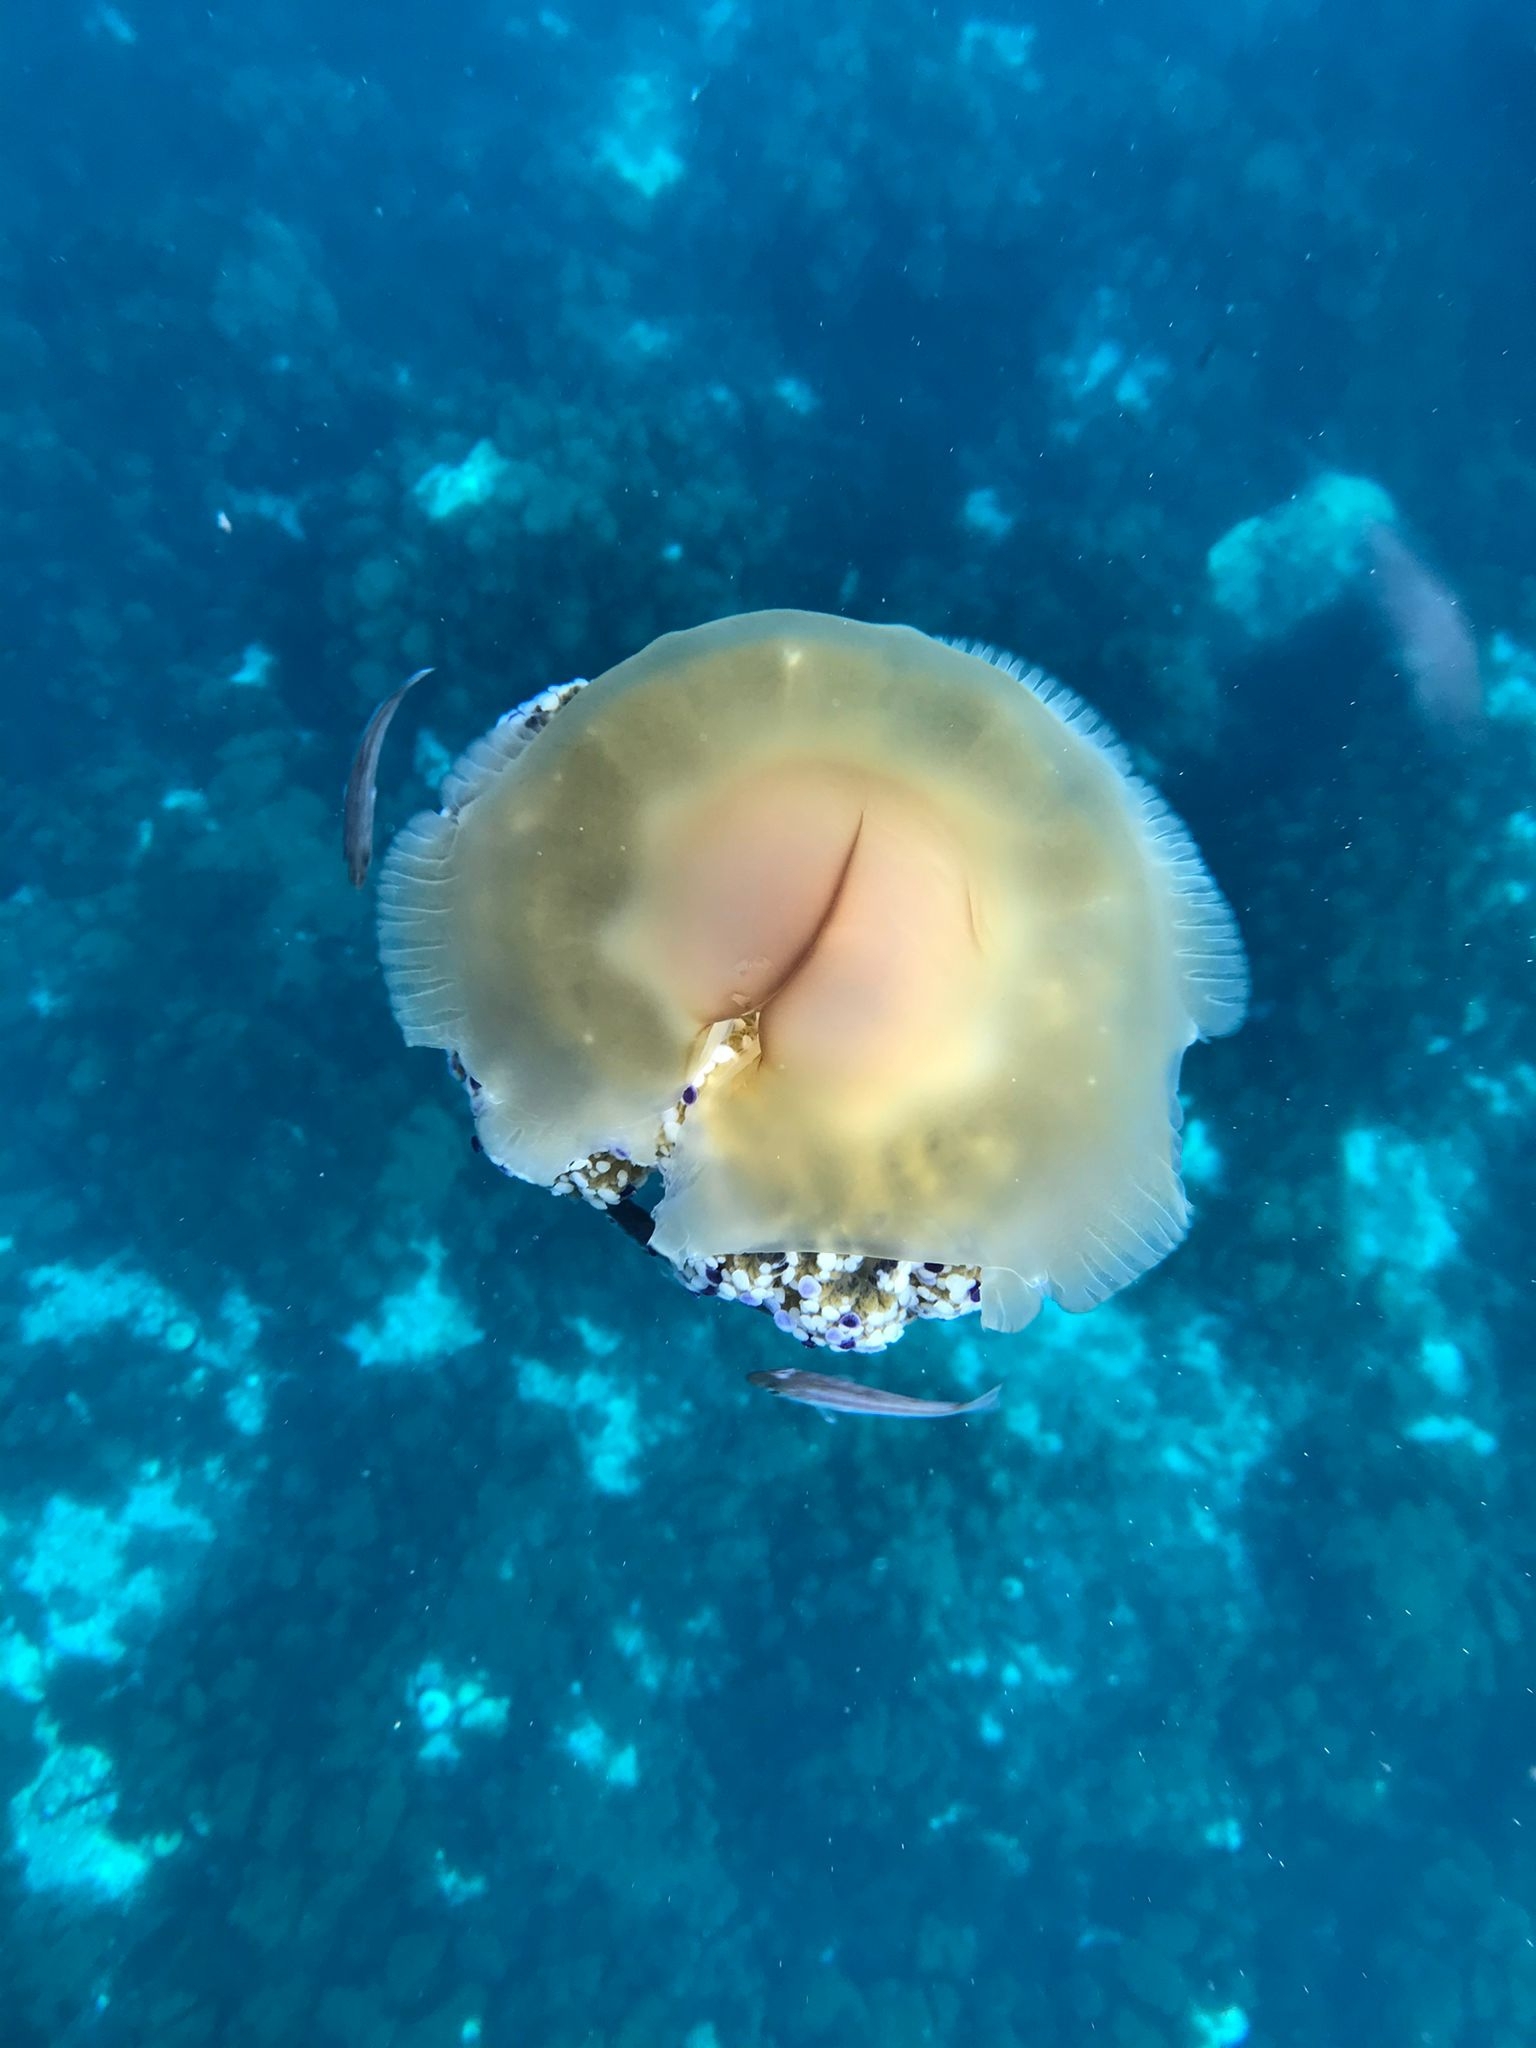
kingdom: Animalia
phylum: Cnidaria
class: Scyphozoa
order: Rhizostomeae
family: Cepheidae
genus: Cotylorhiza
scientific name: Cotylorhiza tuberculata
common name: Mediterranean jelly
